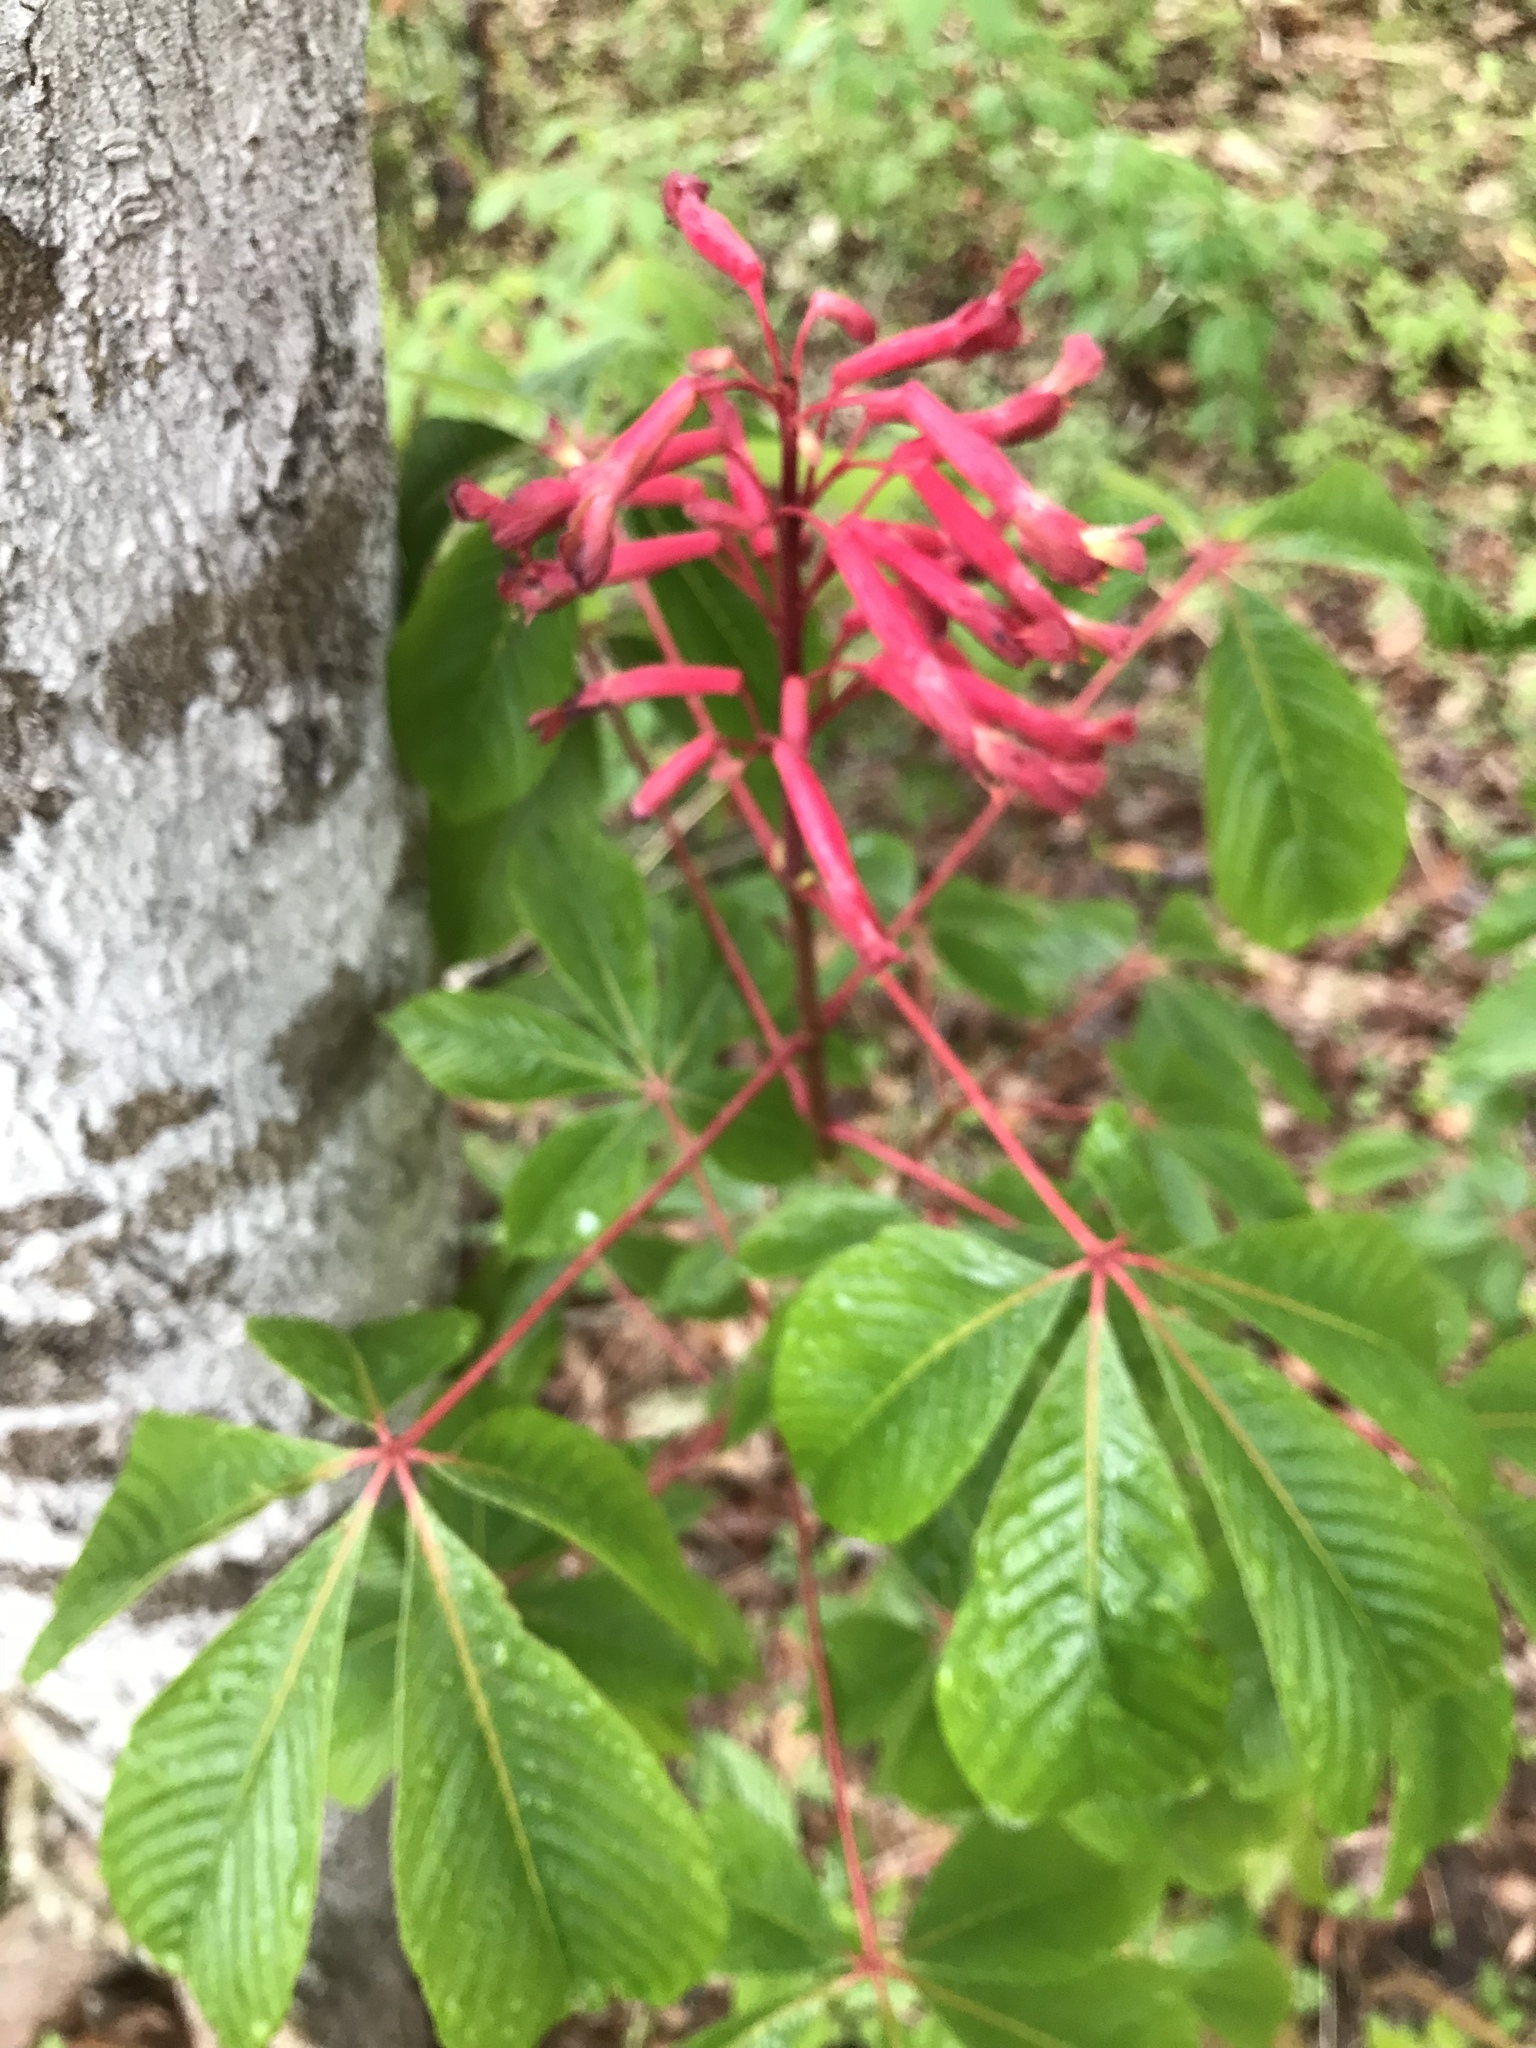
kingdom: Plantae
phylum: Tracheophyta
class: Magnoliopsida
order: Sapindales
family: Sapindaceae
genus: Aesculus
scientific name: Aesculus pavia
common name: Red buckeye
